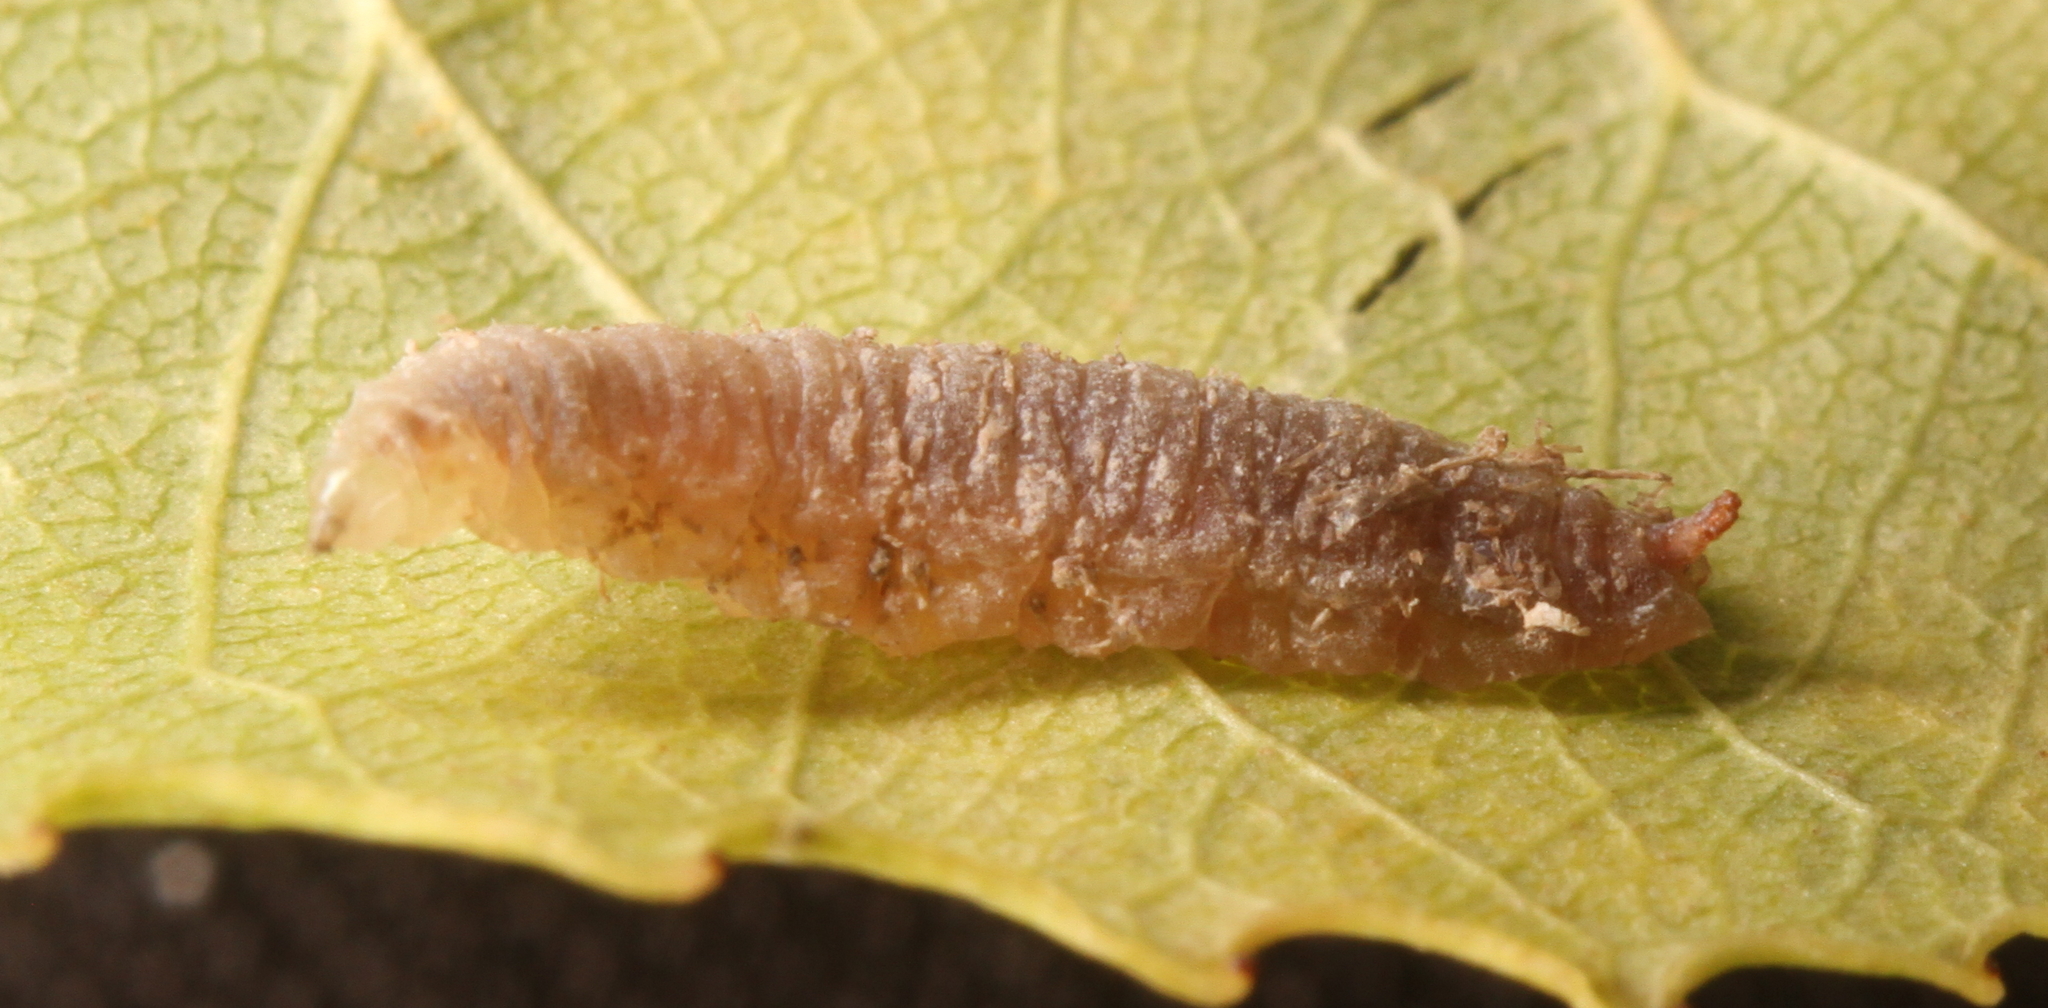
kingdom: Animalia
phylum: Arthropoda
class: Insecta
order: Diptera
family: Syrphidae
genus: Heringia
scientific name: Heringia
